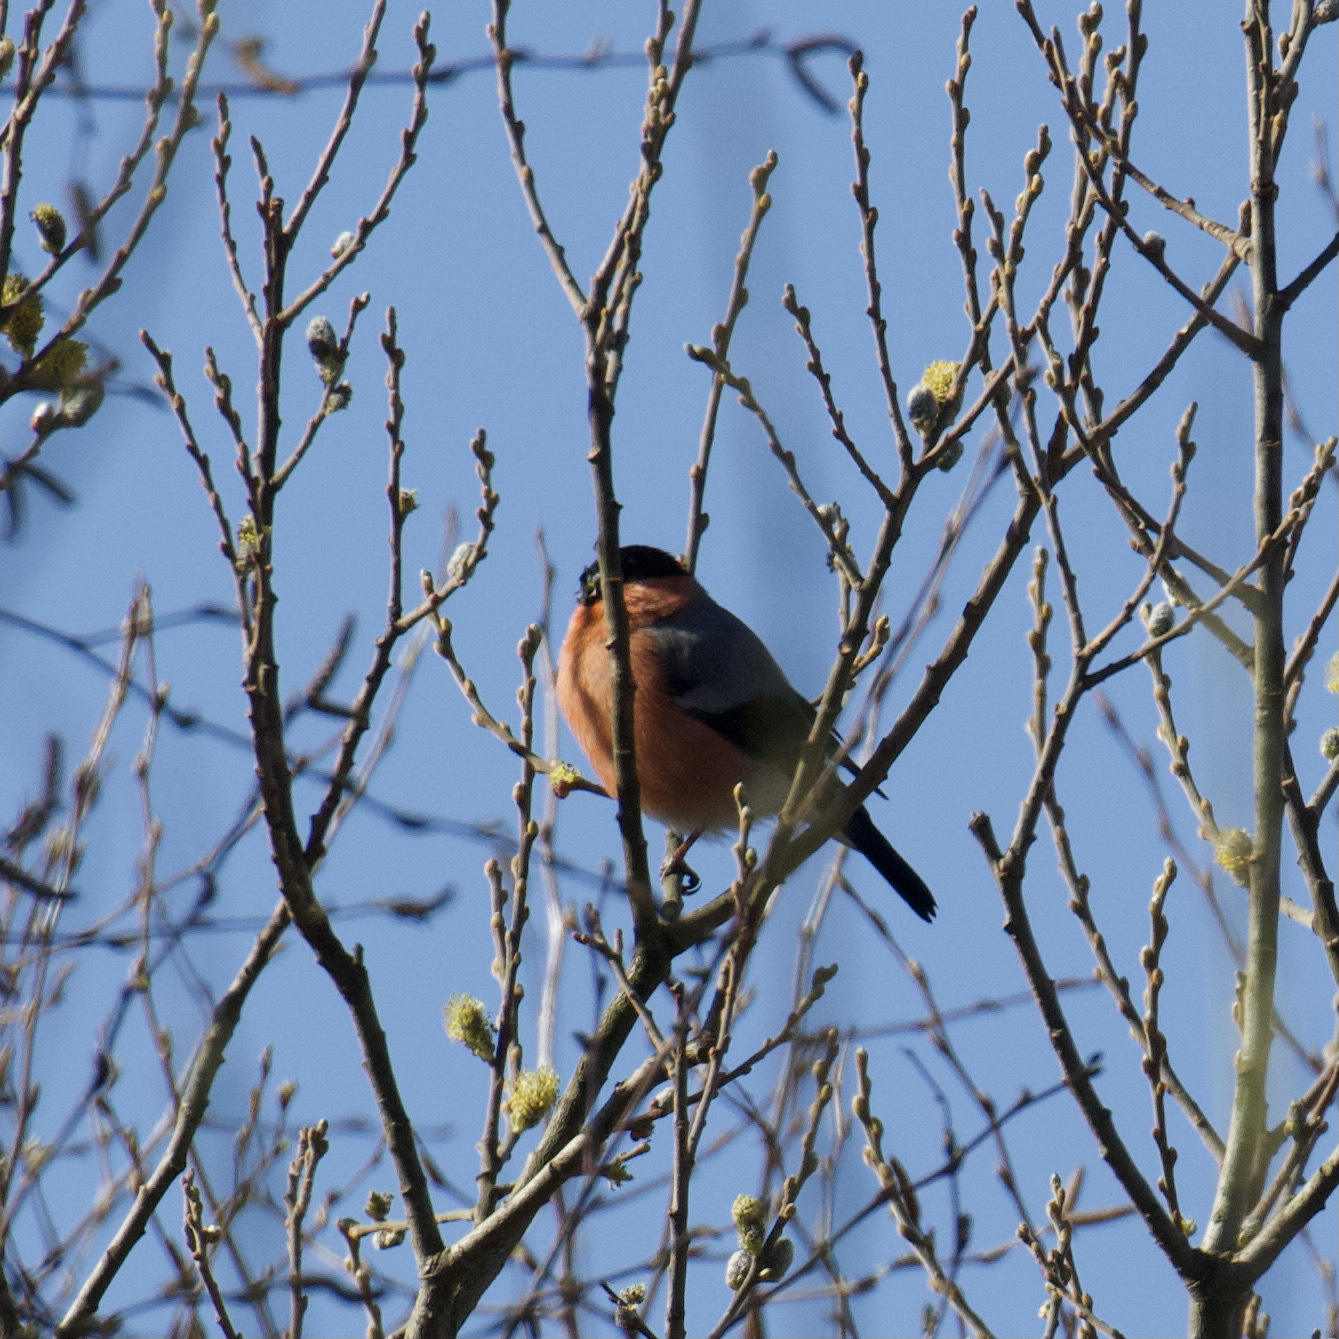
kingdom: Animalia
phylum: Chordata
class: Aves
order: Passeriformes
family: Fringillidae
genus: Pyrrhula
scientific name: Pyrrhula pyrrhula
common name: Eurasian bullfinch
